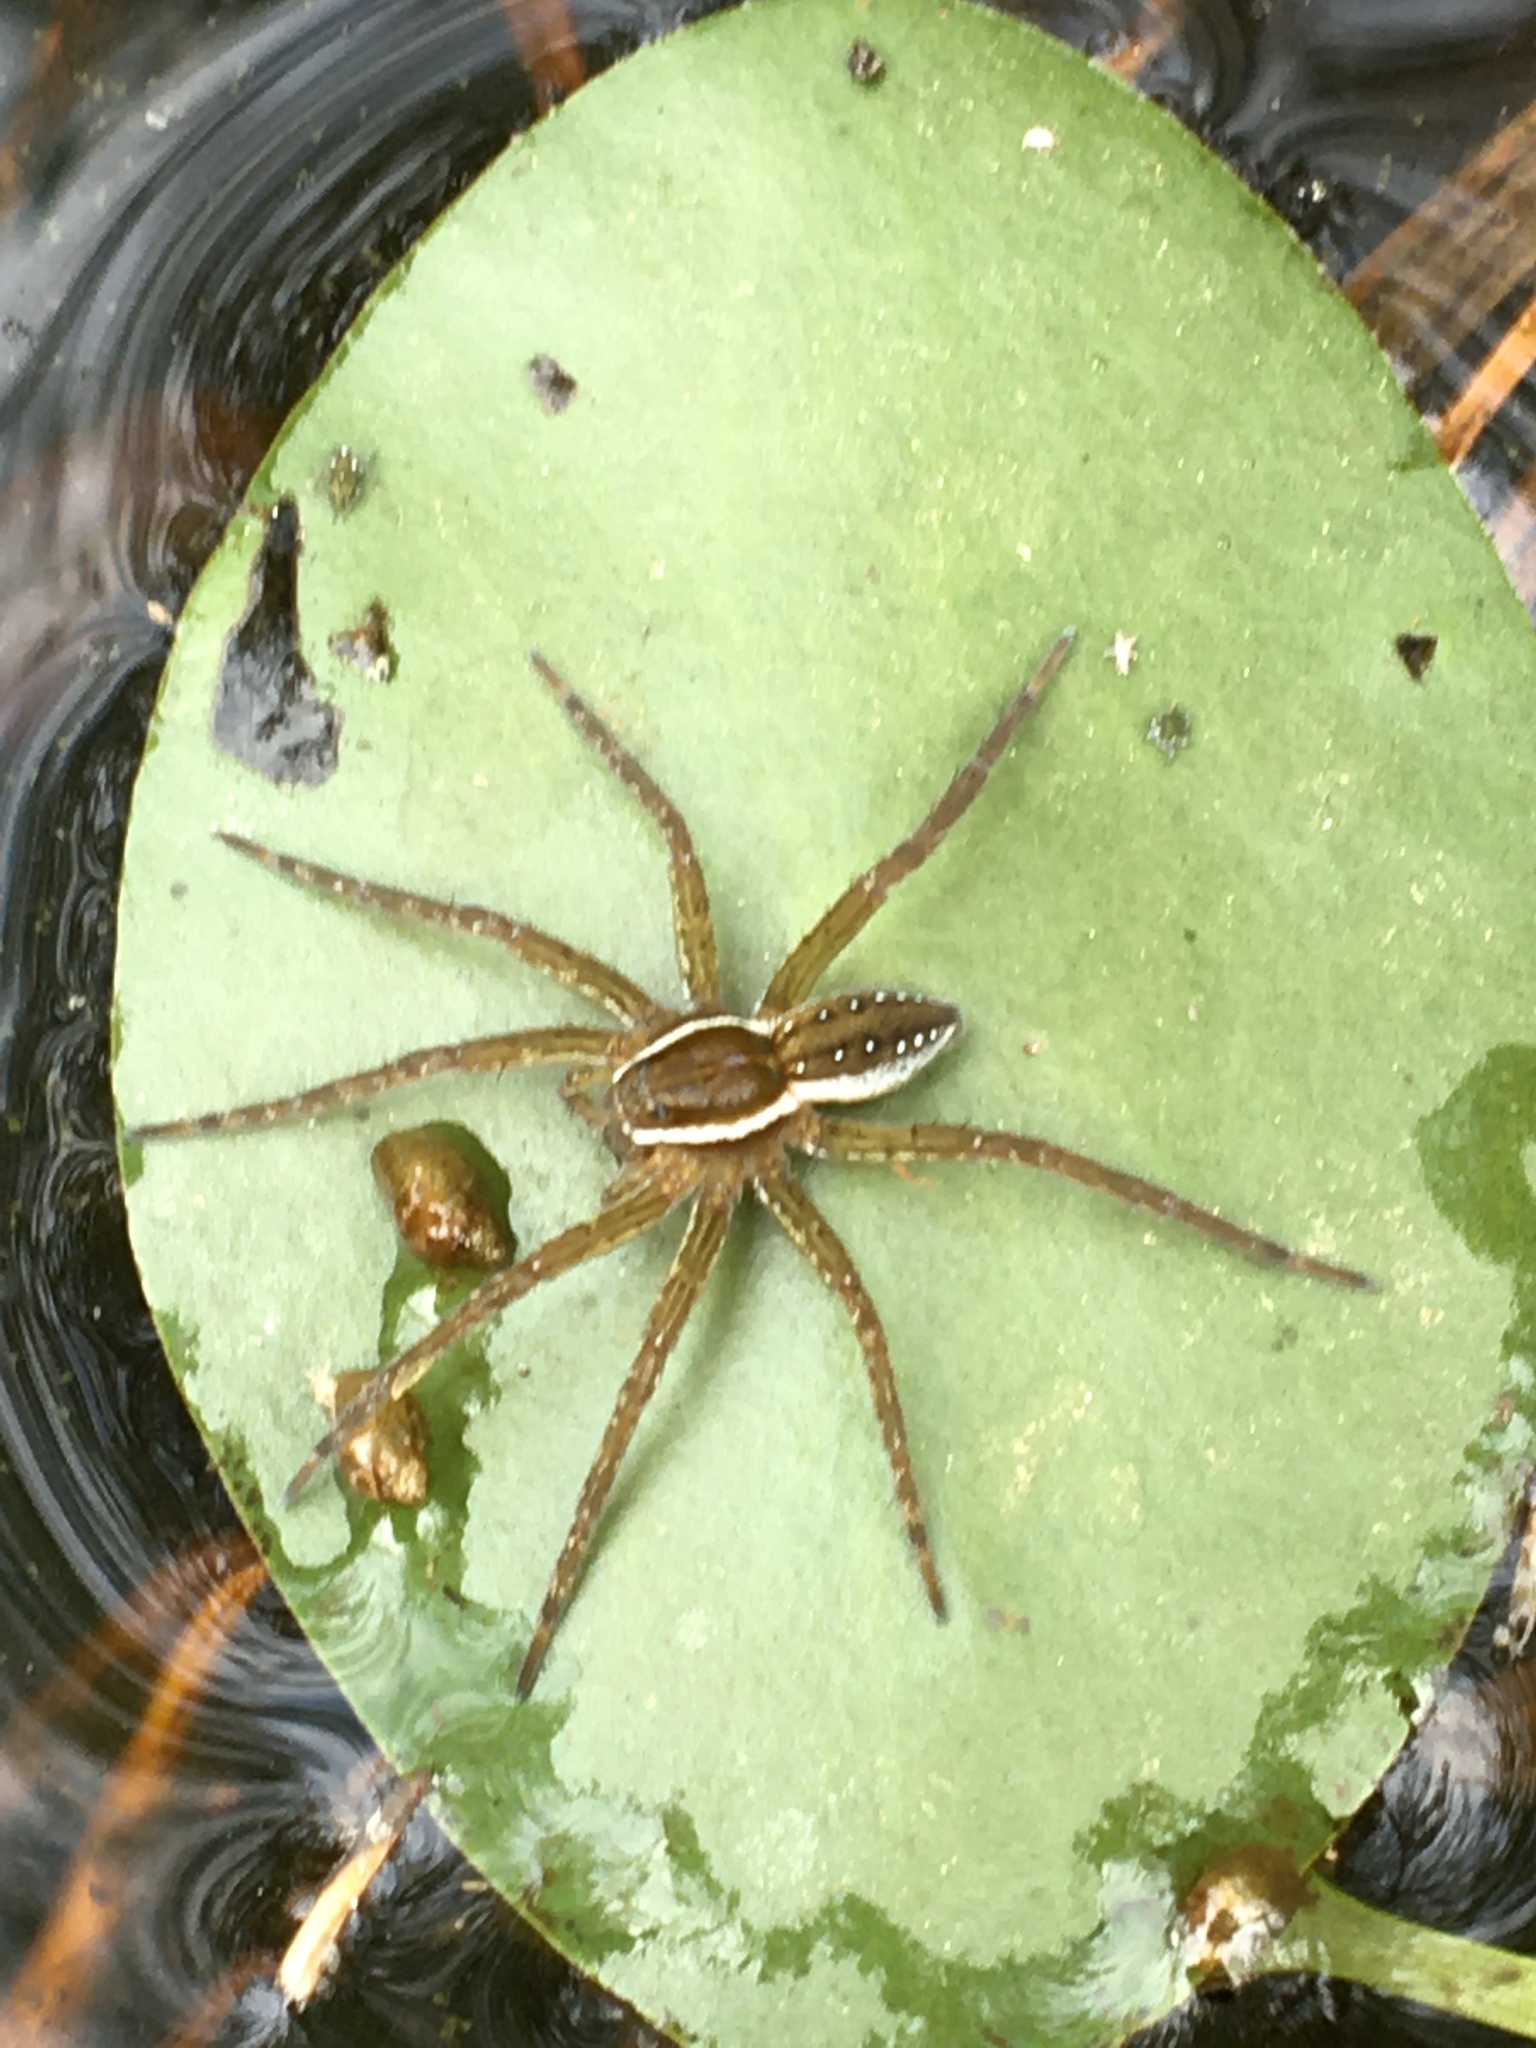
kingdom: Animalia
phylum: Arthropoda
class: Arachnida
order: Araneae
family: Pisauridae
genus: Dolomedes
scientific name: Dolomedes triton
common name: Six-spotted fishing spider
